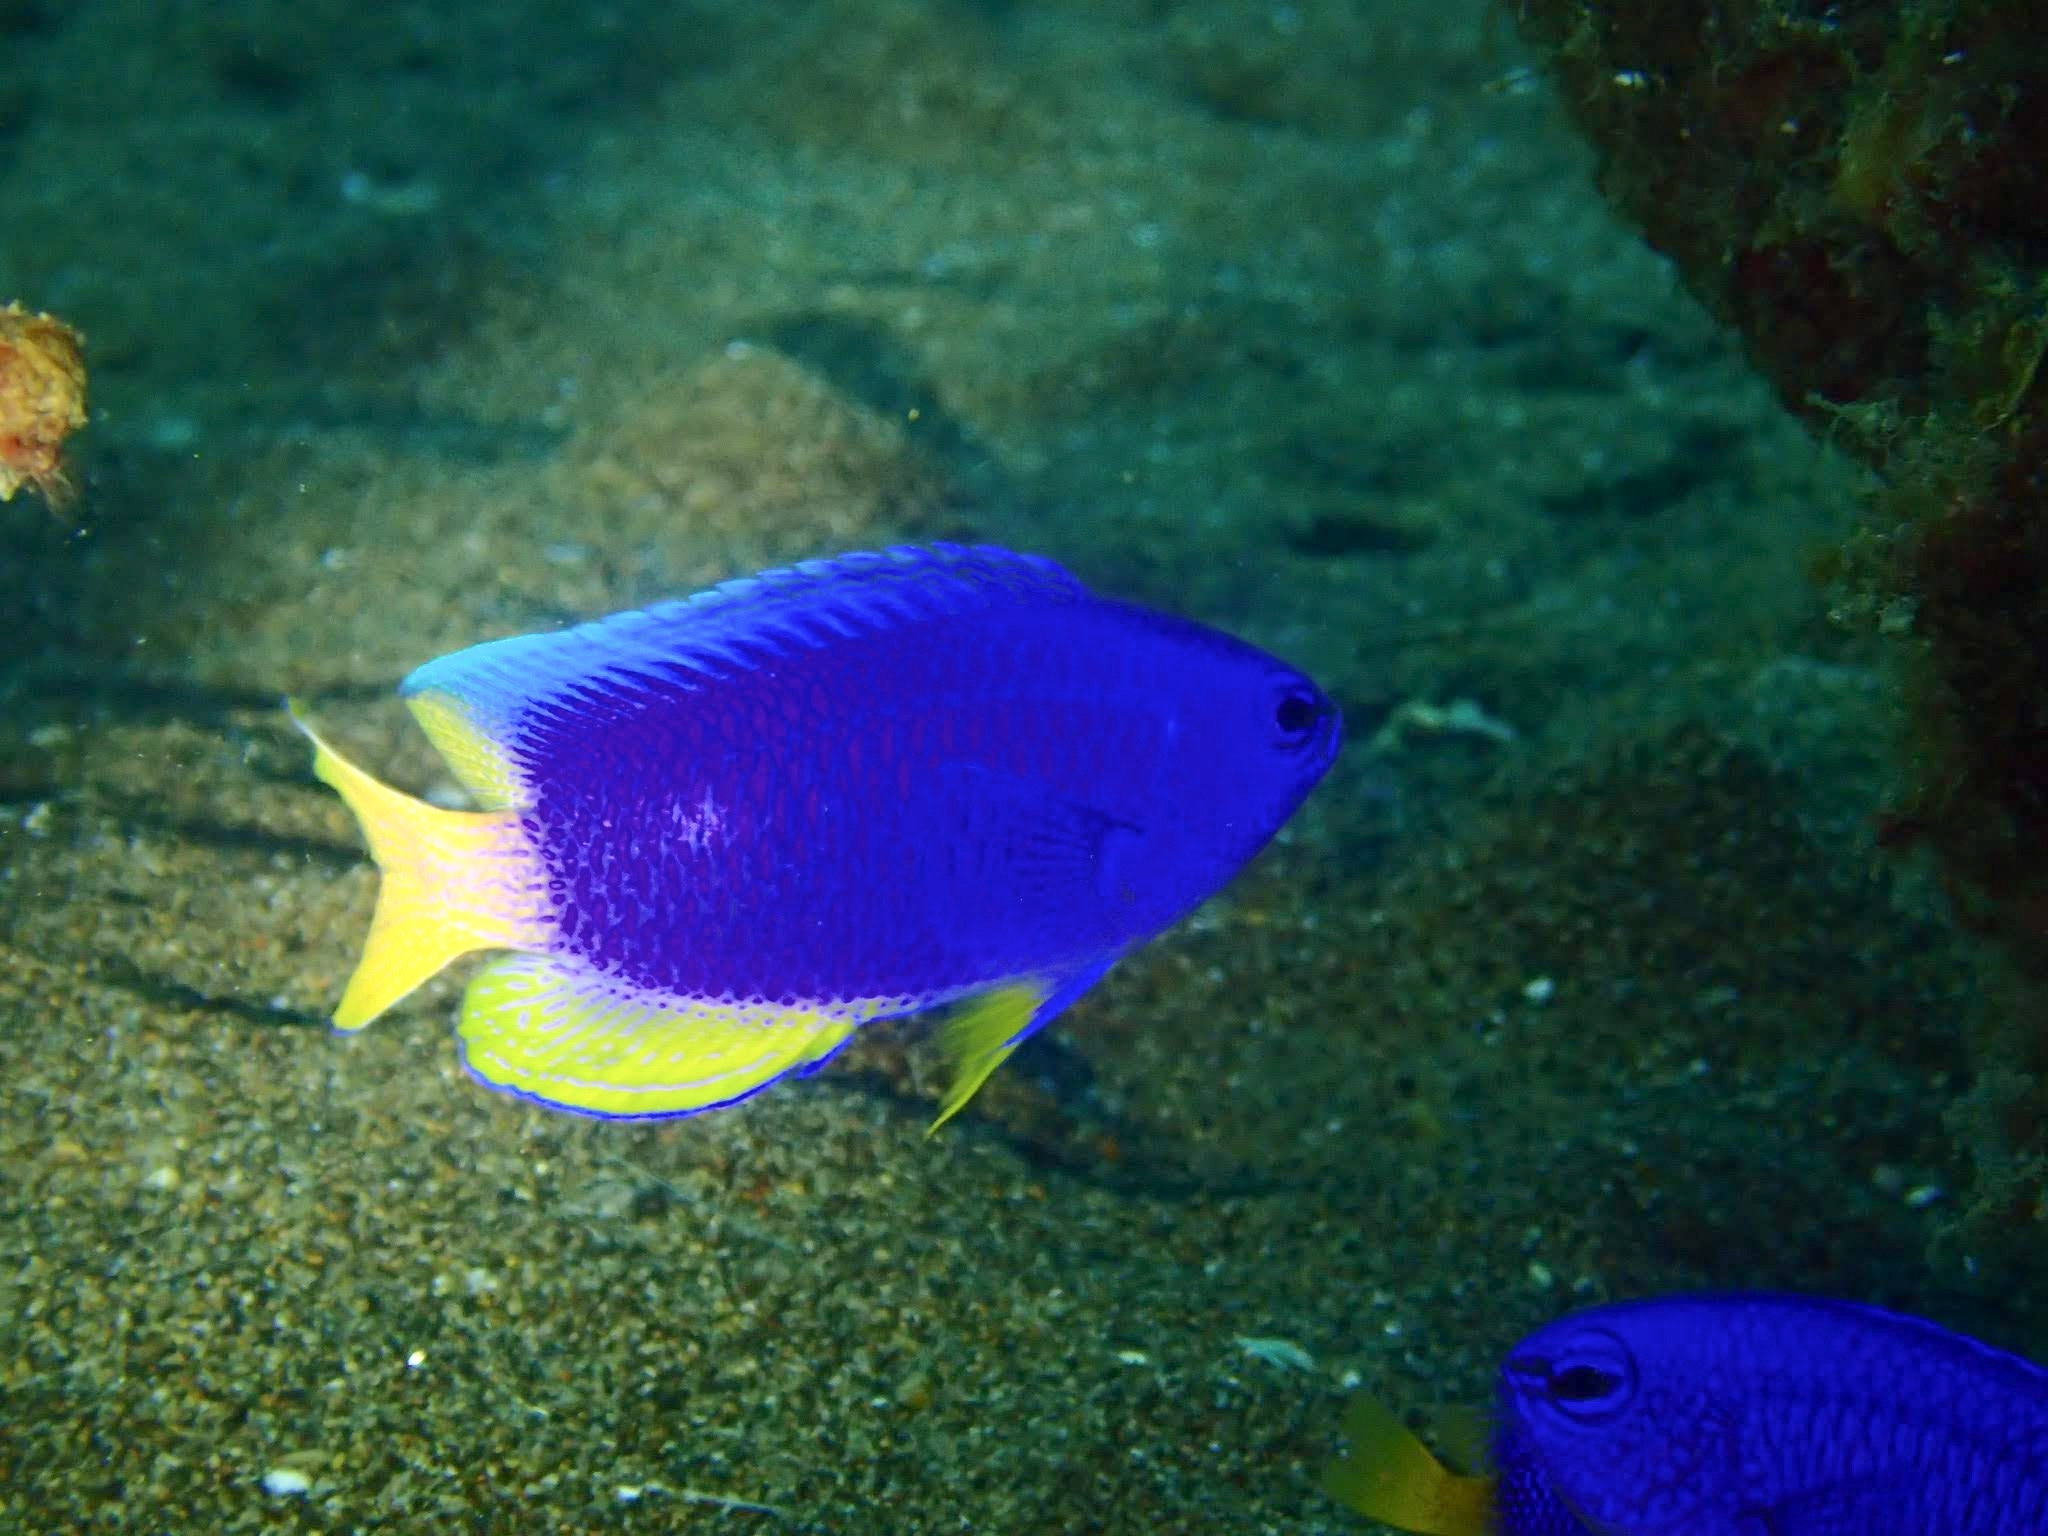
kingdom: Animalia
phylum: Chordata
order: Perciformes
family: Pomacentridae
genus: Pomacentrus
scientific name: Pomacentrus coelestis
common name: Neon damsel
